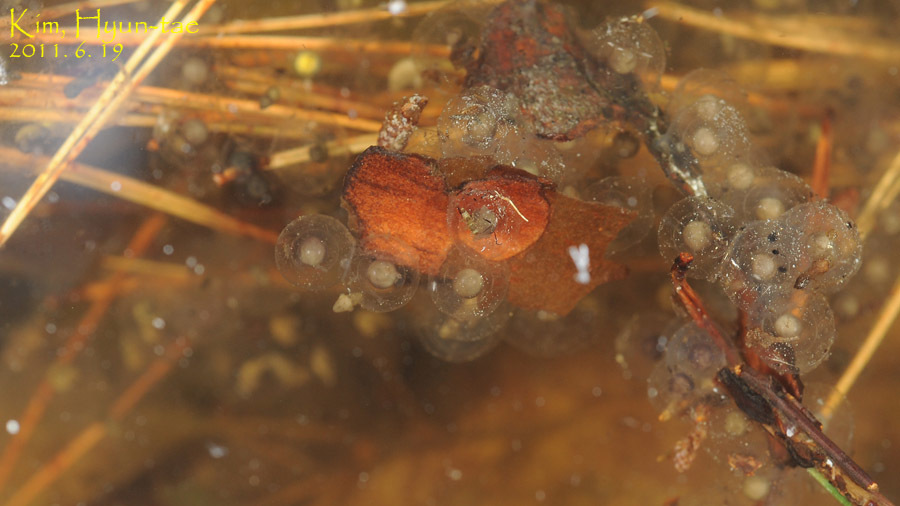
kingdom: Animalia
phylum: Chordata
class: Amphibia
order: Anura
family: Bombinatoridae
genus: Bombina
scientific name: Bombina orientalis
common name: Oriental firebelly toad
